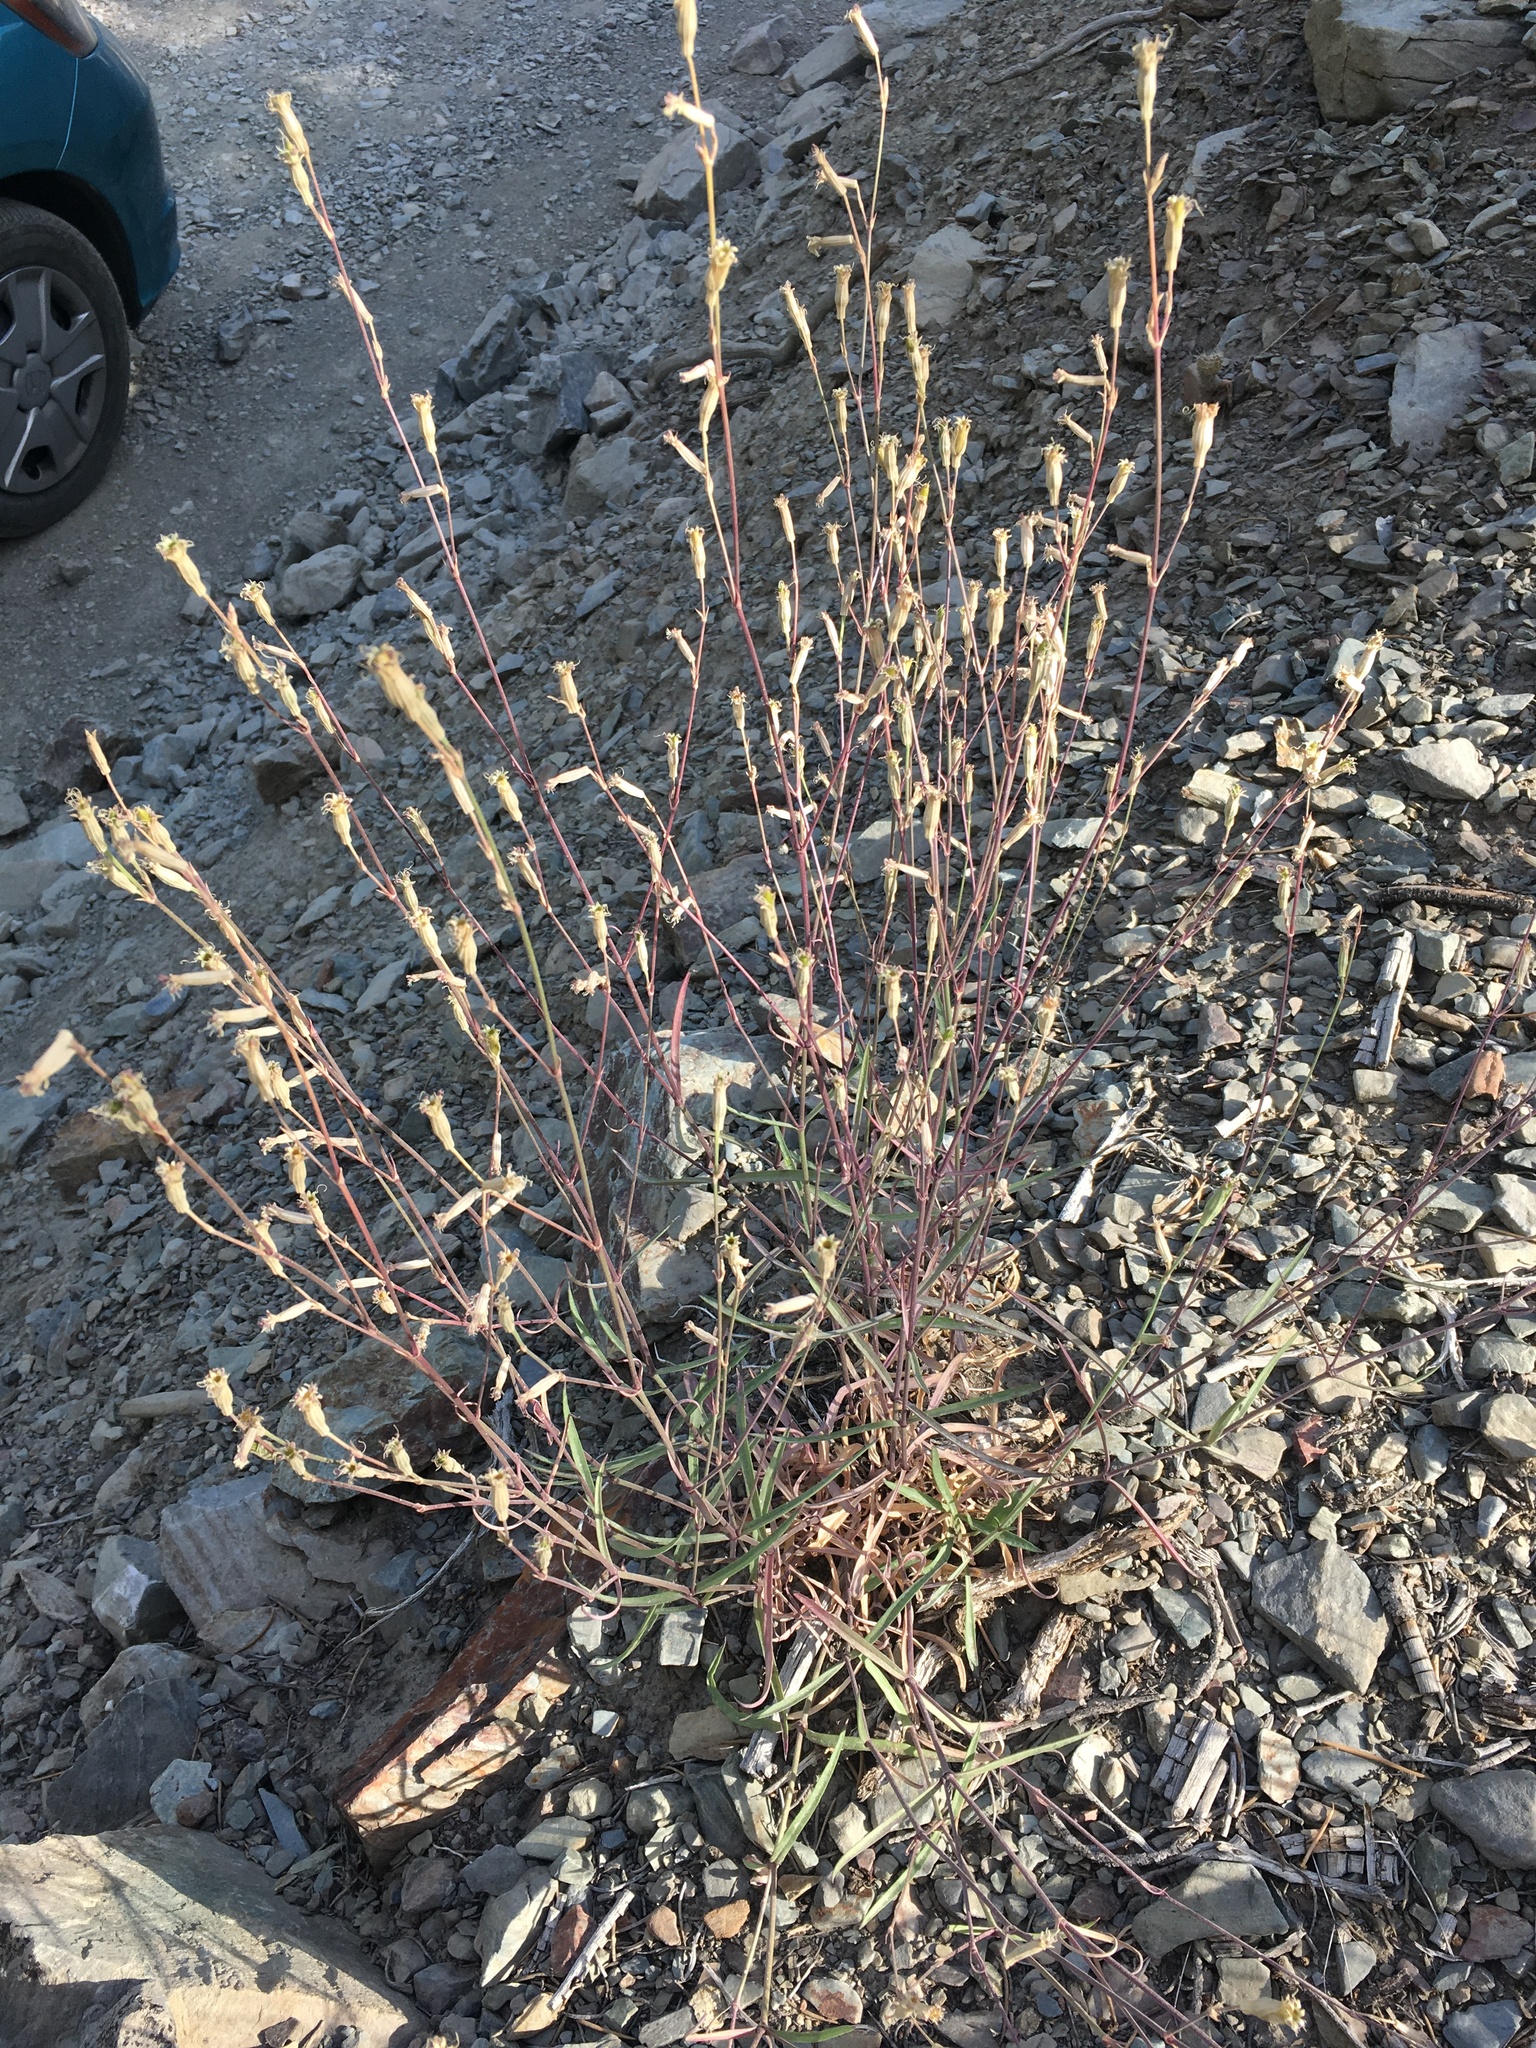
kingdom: Plantae
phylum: Tracheophyta
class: Magnoliopsida
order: Caryophyllales
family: Caryophyllaceae
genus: Silene
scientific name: Silene verecunda
